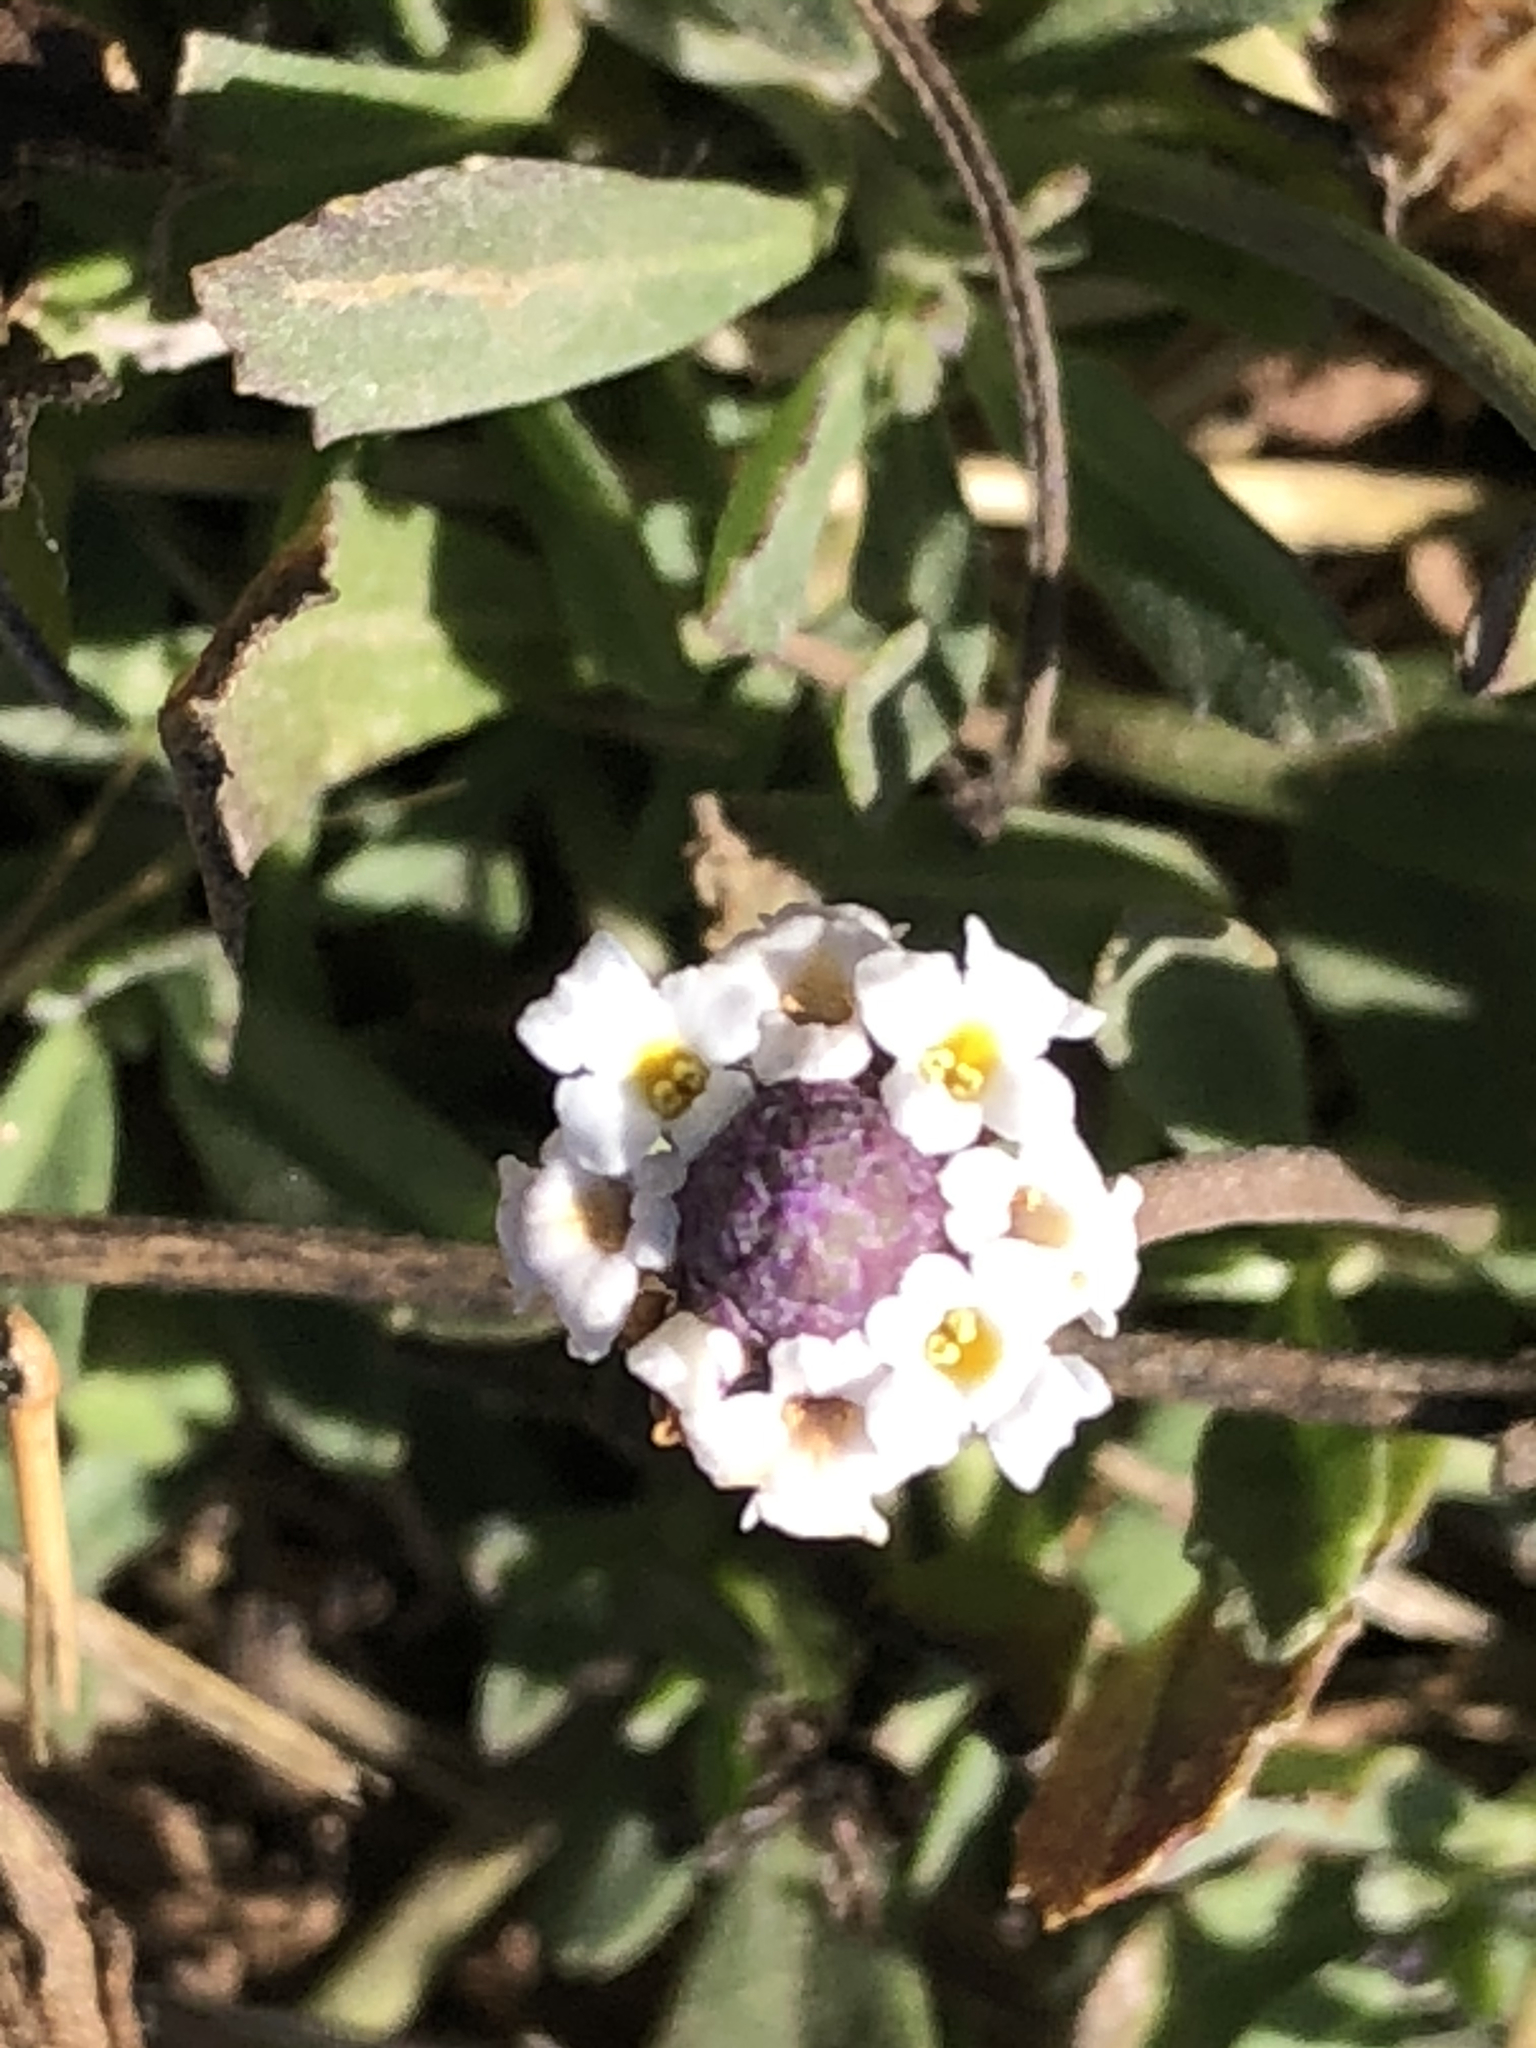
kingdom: Plantae
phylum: Tracheophyta
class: Magnoliopsida
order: Lamiales
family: Verbenaceae
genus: Phyla
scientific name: Phyla nodiflora
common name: Frogfruit
